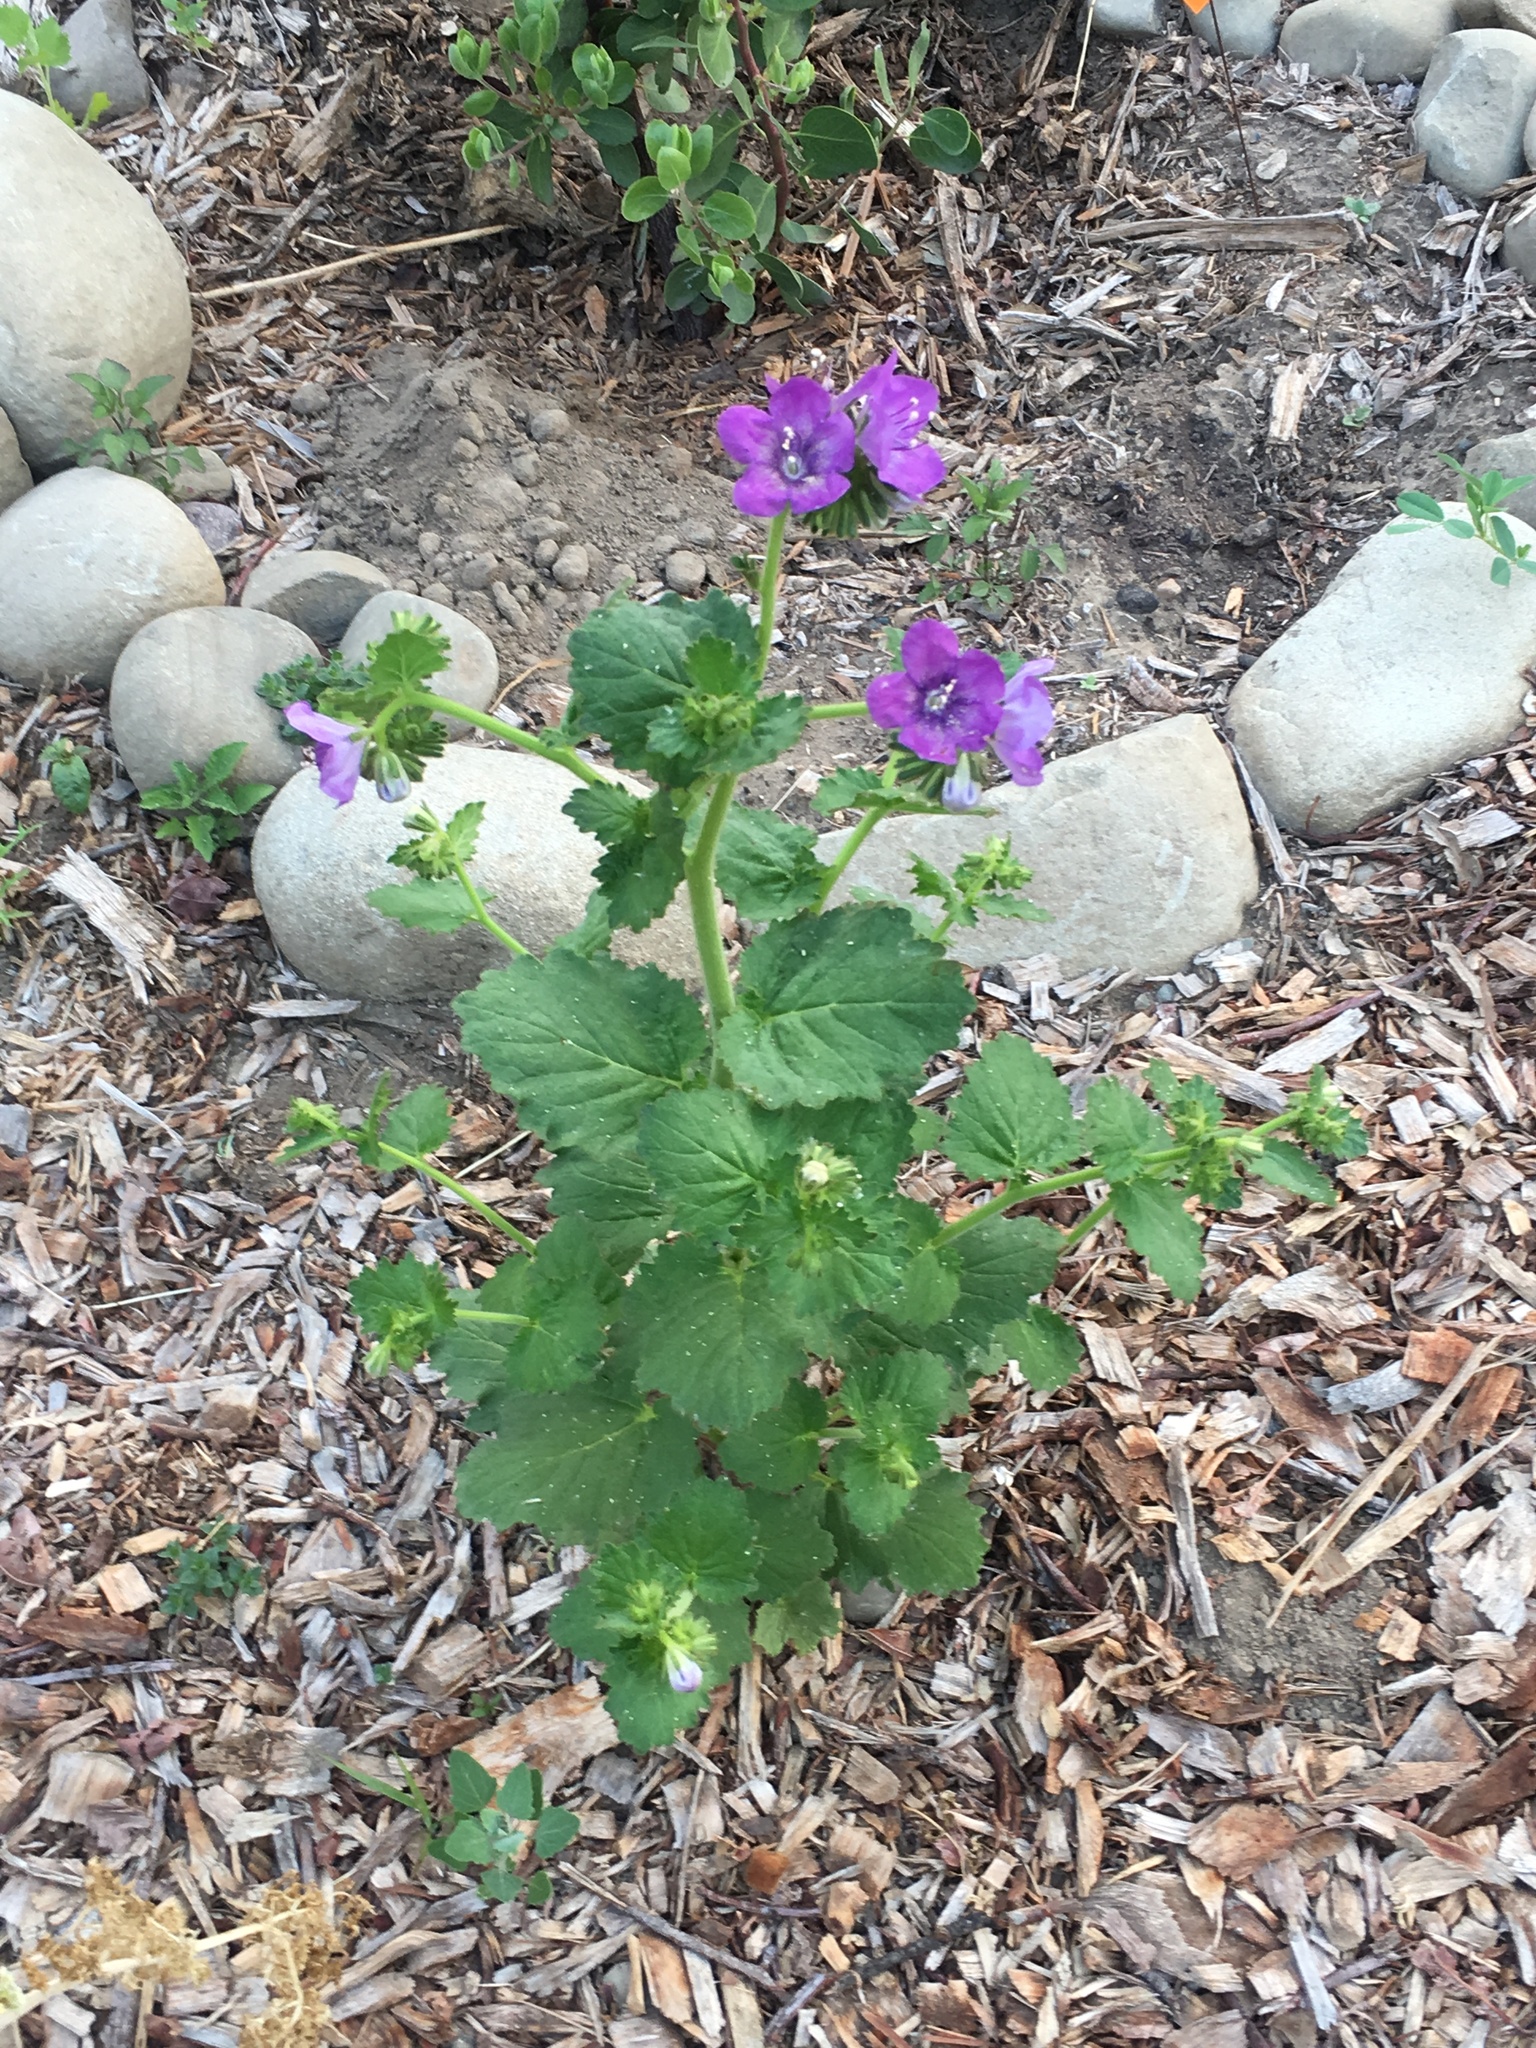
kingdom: Plantae
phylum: Tracheophyta
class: Magnoliopsida
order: Boraginales
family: Hydrophyllaceae
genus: Phacelia
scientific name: Phacelia grandiflora
